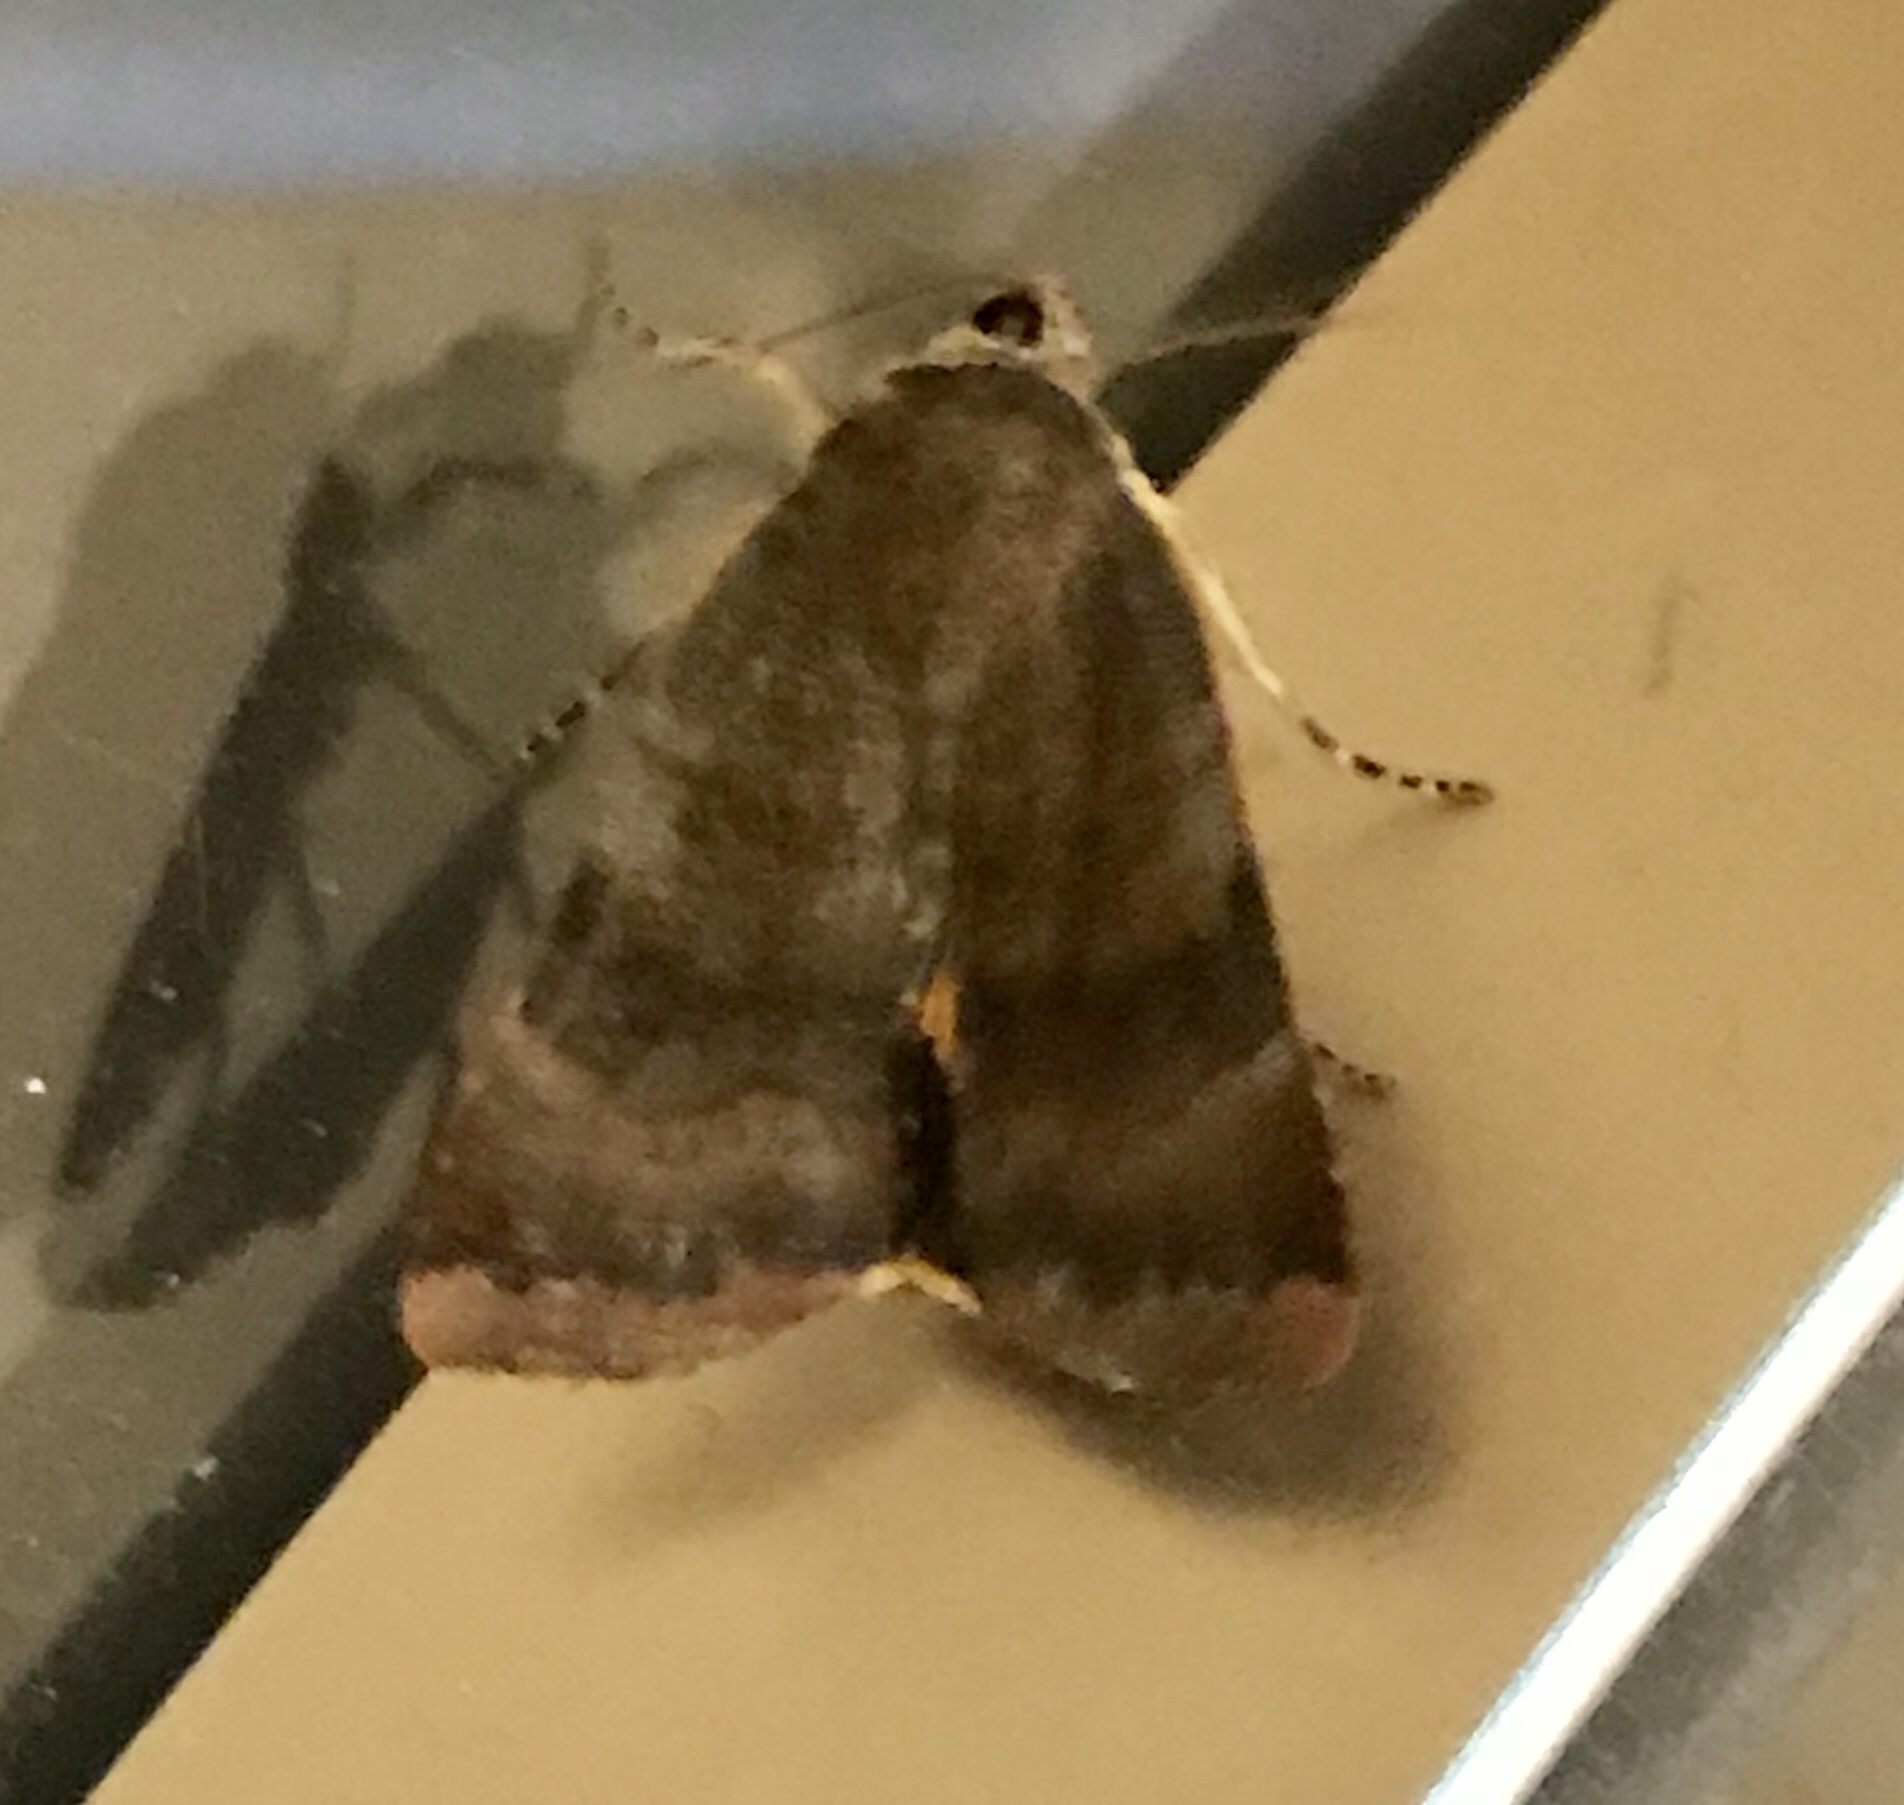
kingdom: Animalia
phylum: Arthropoda
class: Insecta
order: Lepidoptera
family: Noctuidae
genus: Noctua
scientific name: Noctua janthe
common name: Lesser broad-bordered yellow underwing
